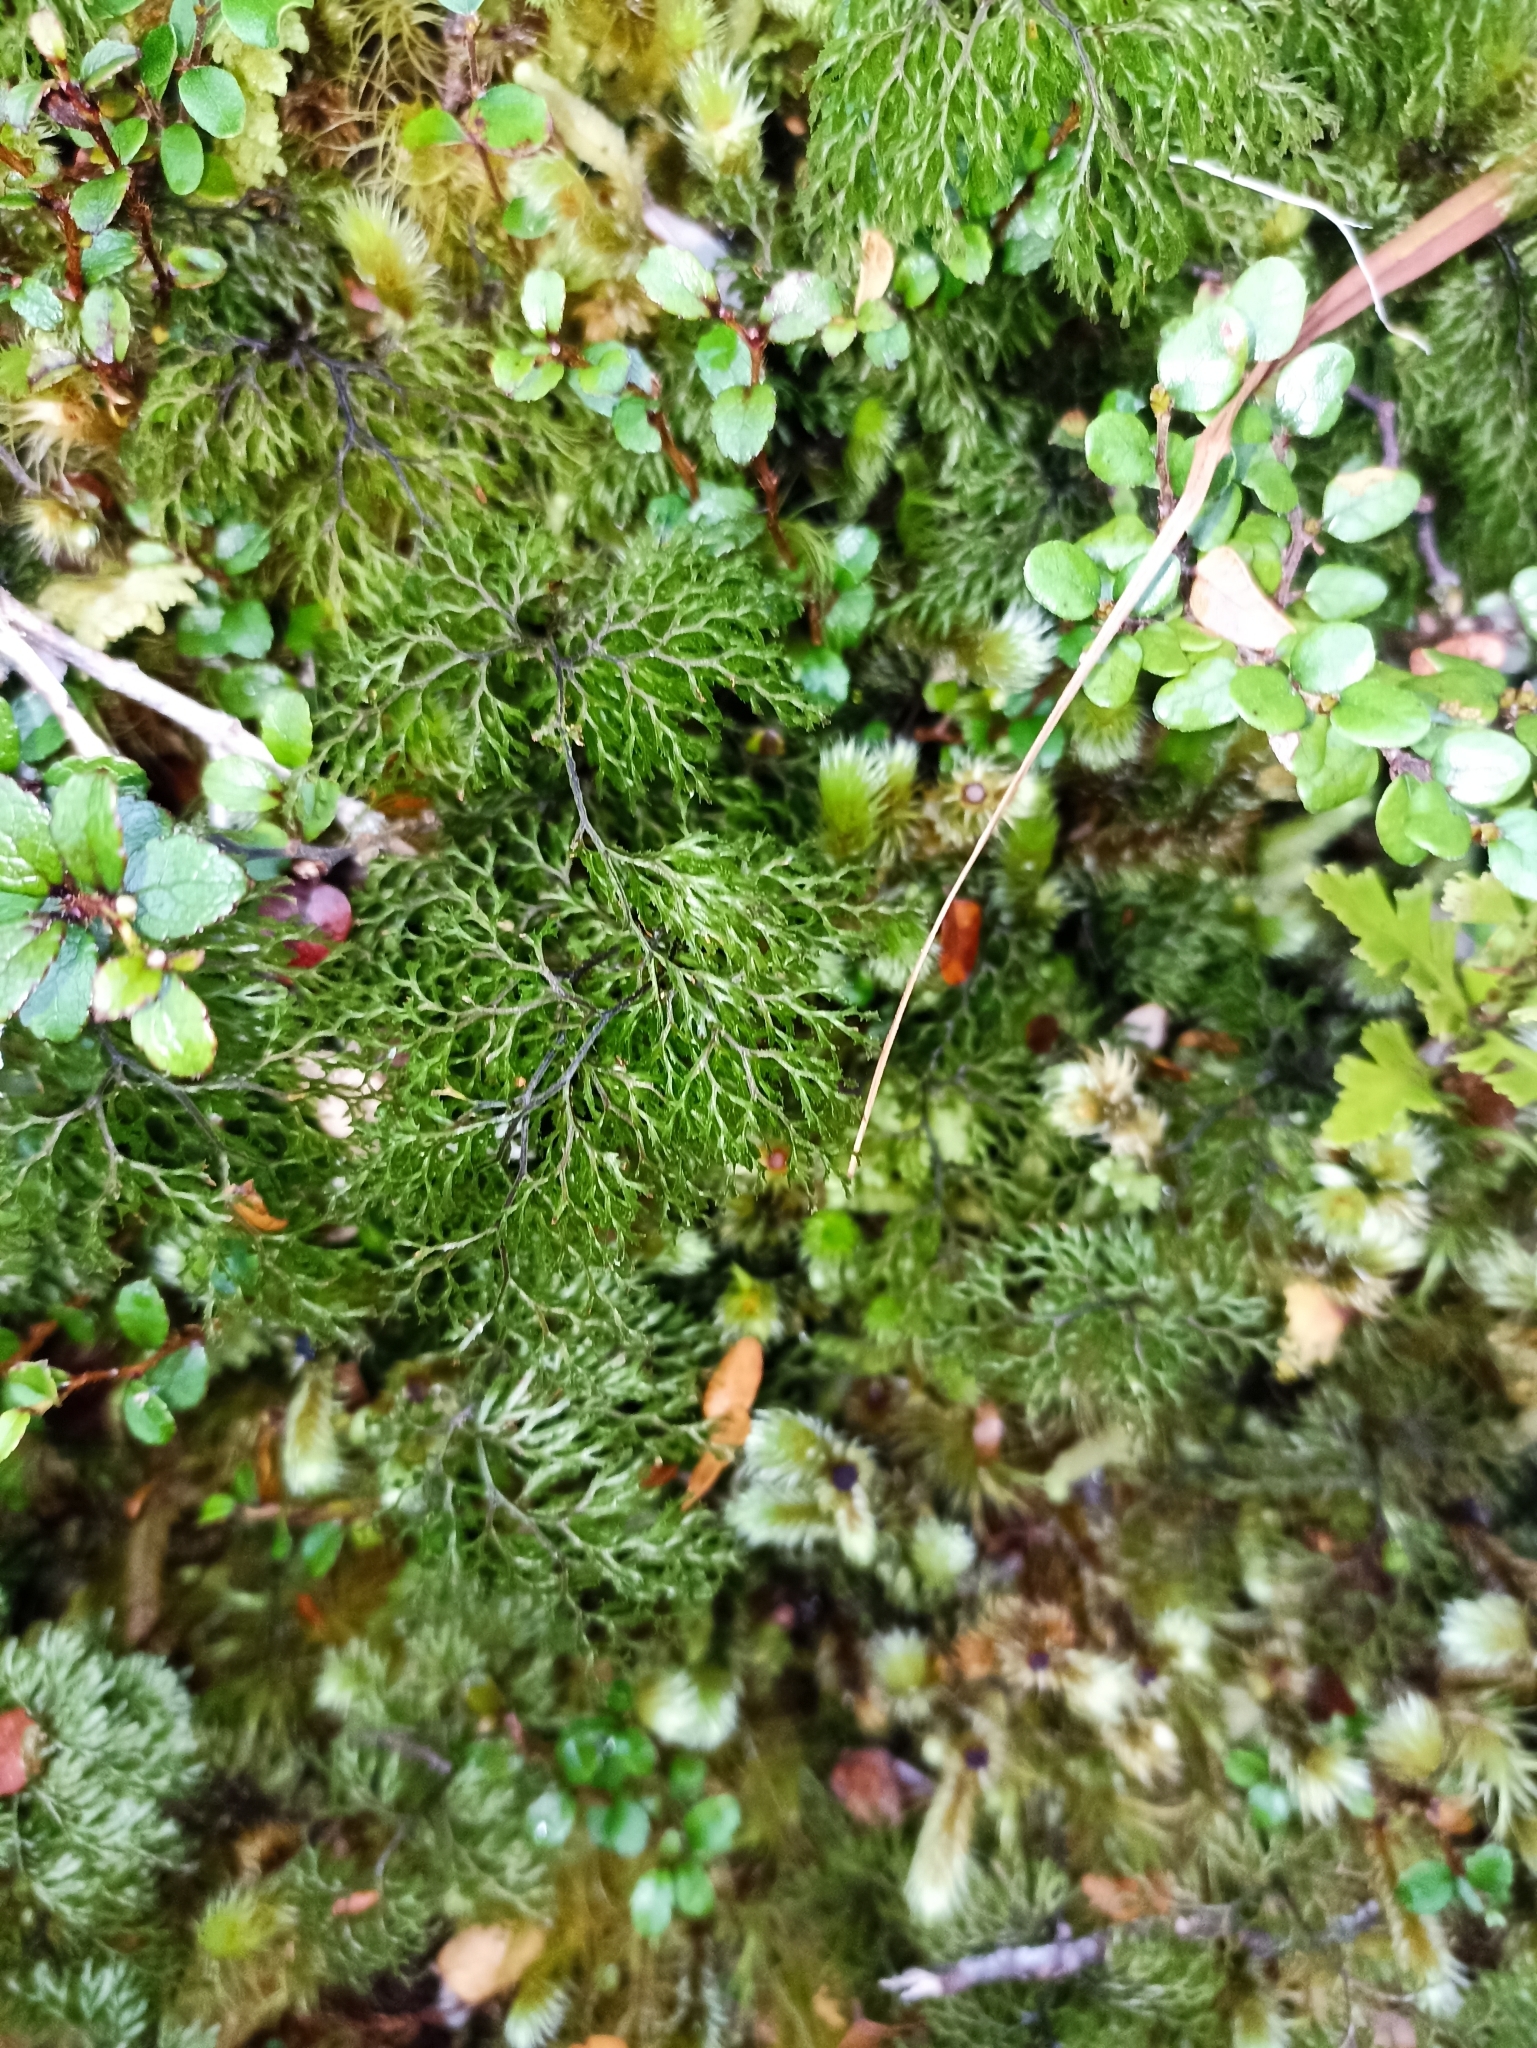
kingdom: Plantae
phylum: Tracheophyta
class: Polypodiopsida
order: Hymenophyllales
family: Hymenophyllaceae
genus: Hymenophyllum
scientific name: Hymenophyllum multifidum
